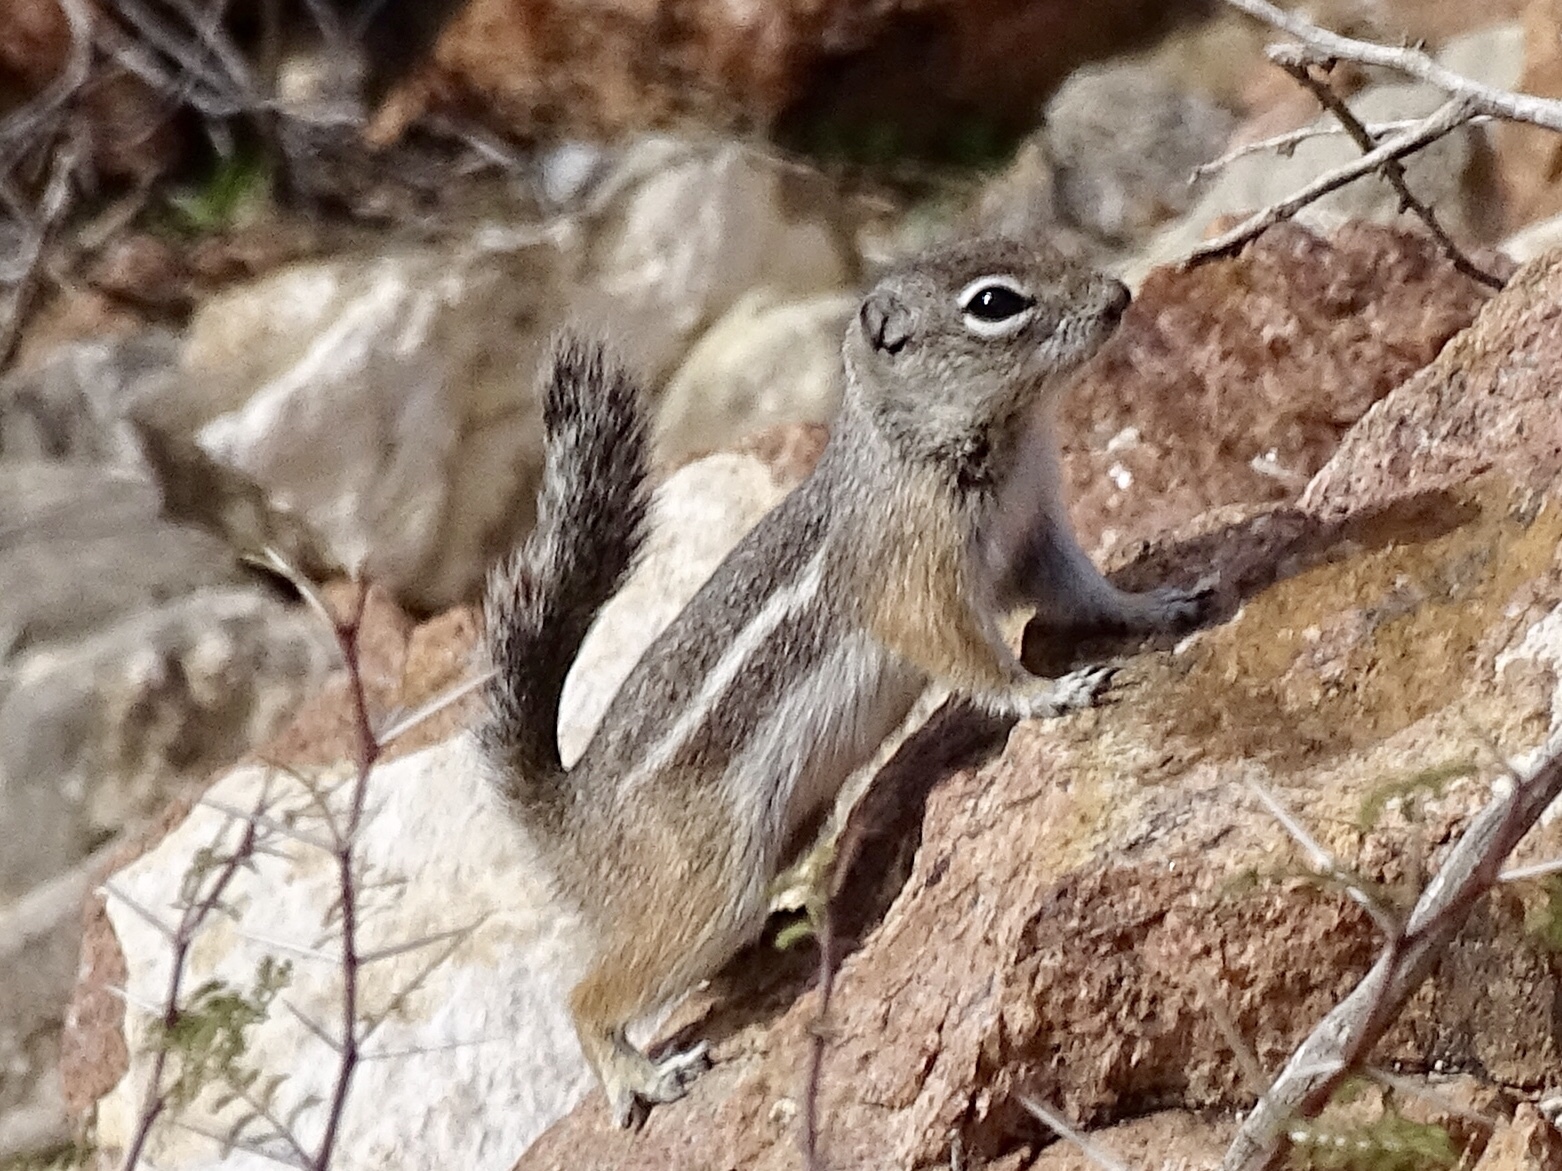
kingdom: Animalia
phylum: Chordata
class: Mammalia
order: Rodentia
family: Sciuridae
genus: Ammospermophilus
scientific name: Ammospermophilus interpres
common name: Texas antelope squirrel
